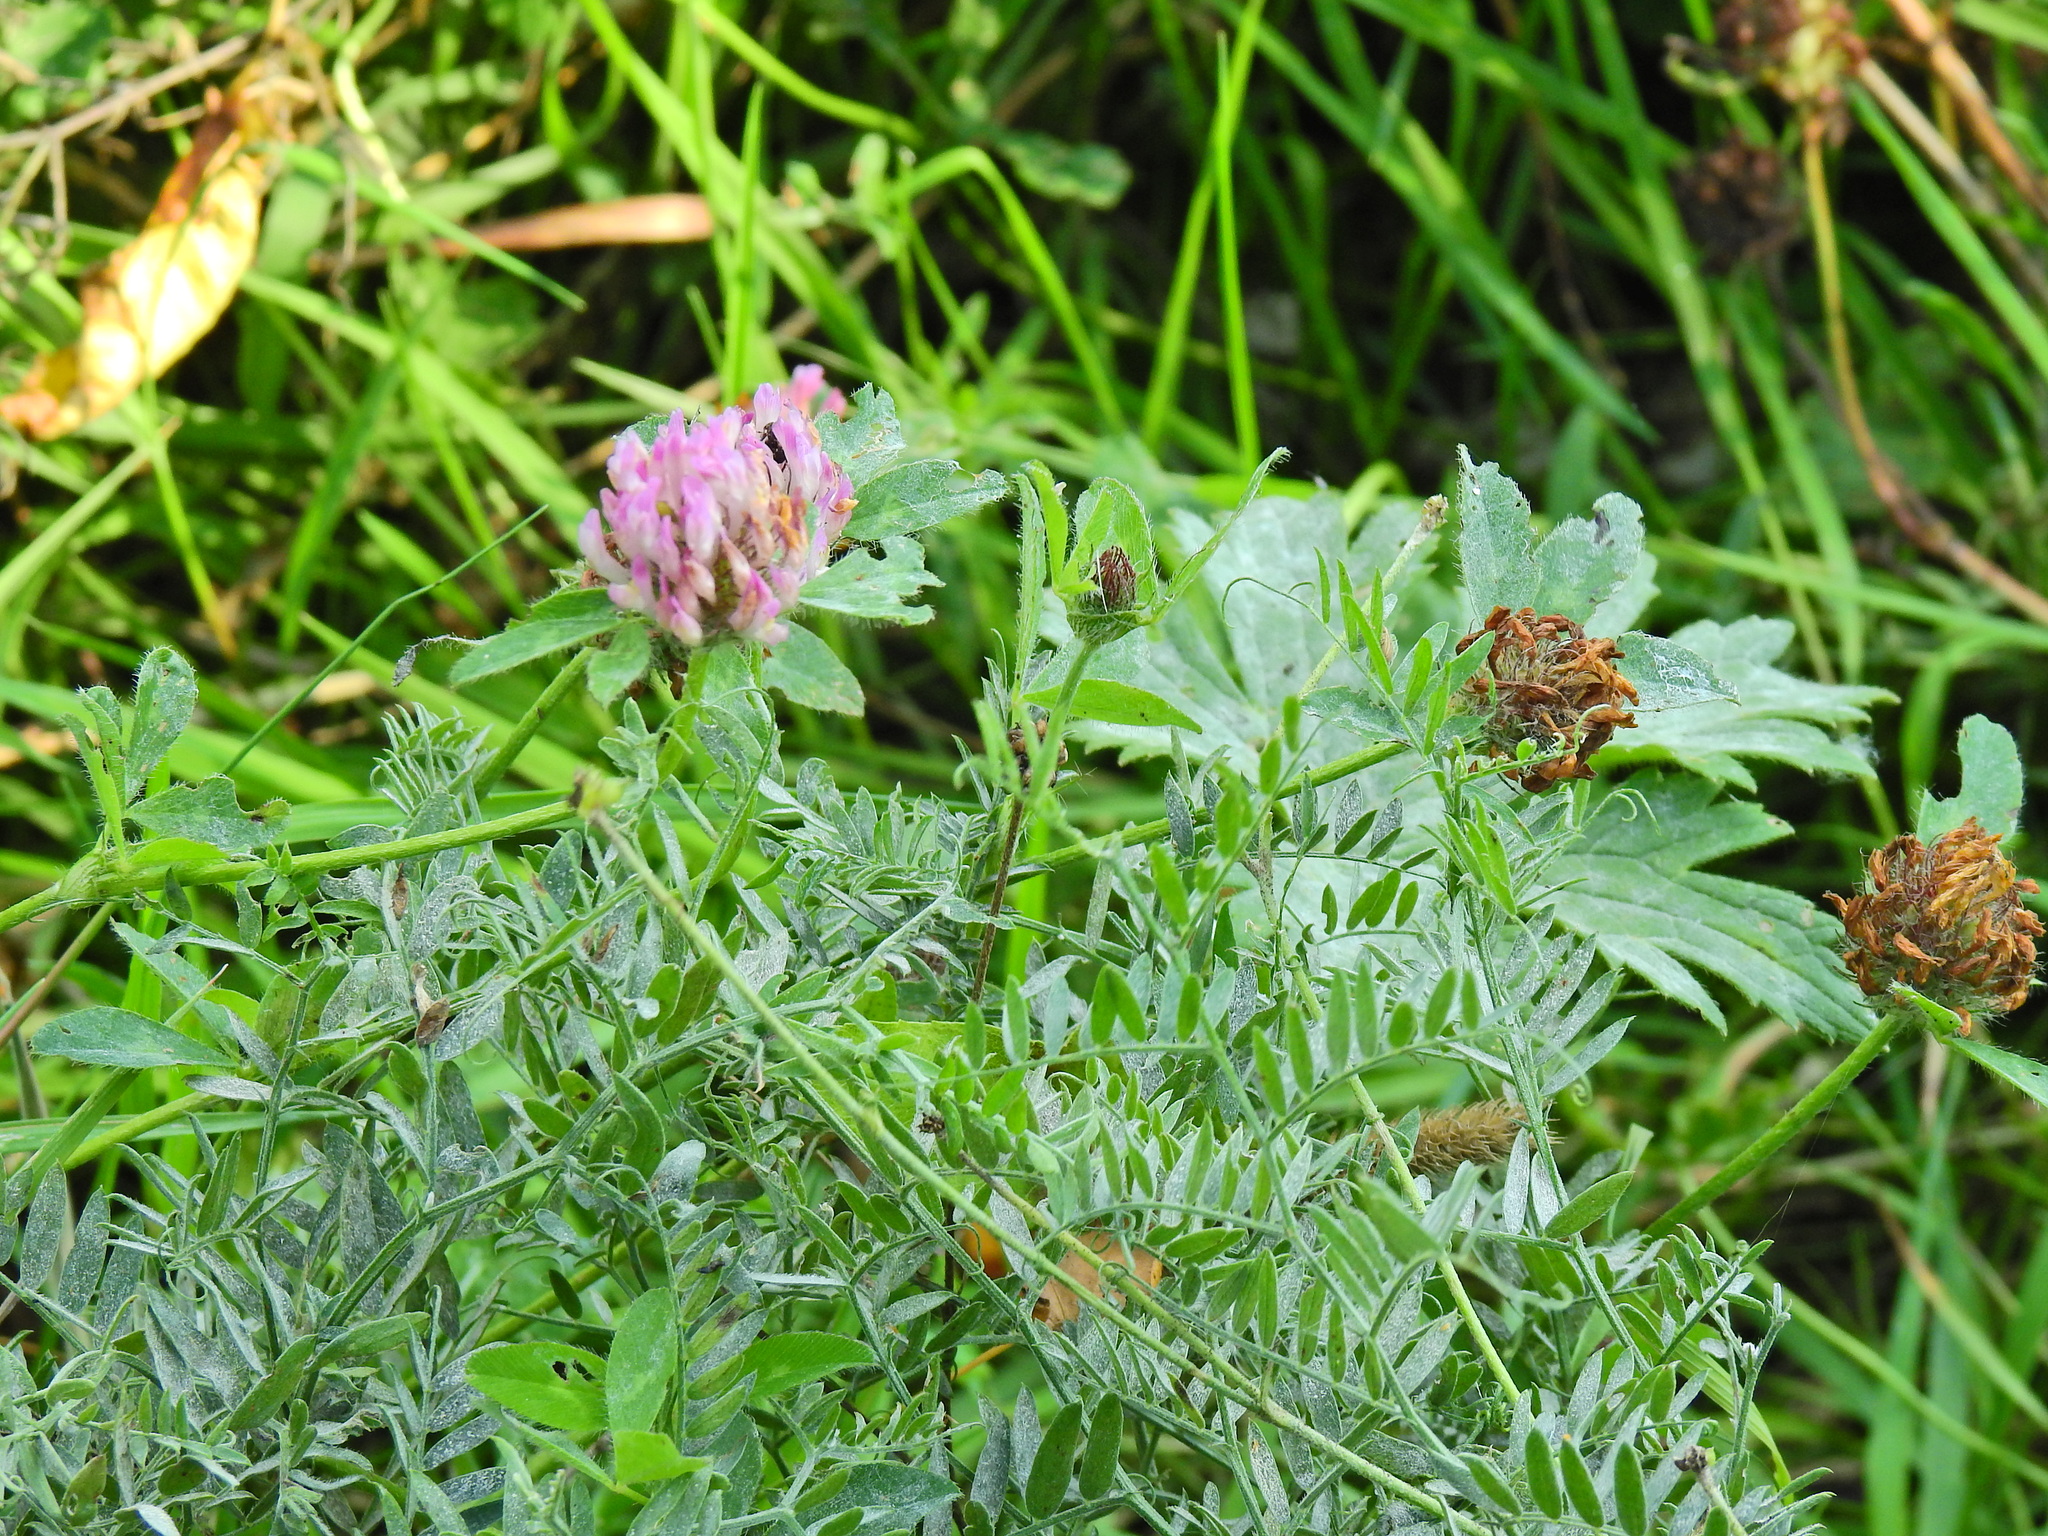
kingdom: Plantae
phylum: Tracheophyta
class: Magnoliopsida
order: Fabales
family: Fabaceae
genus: Trifolium
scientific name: Trifolium pratense
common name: Red clover
